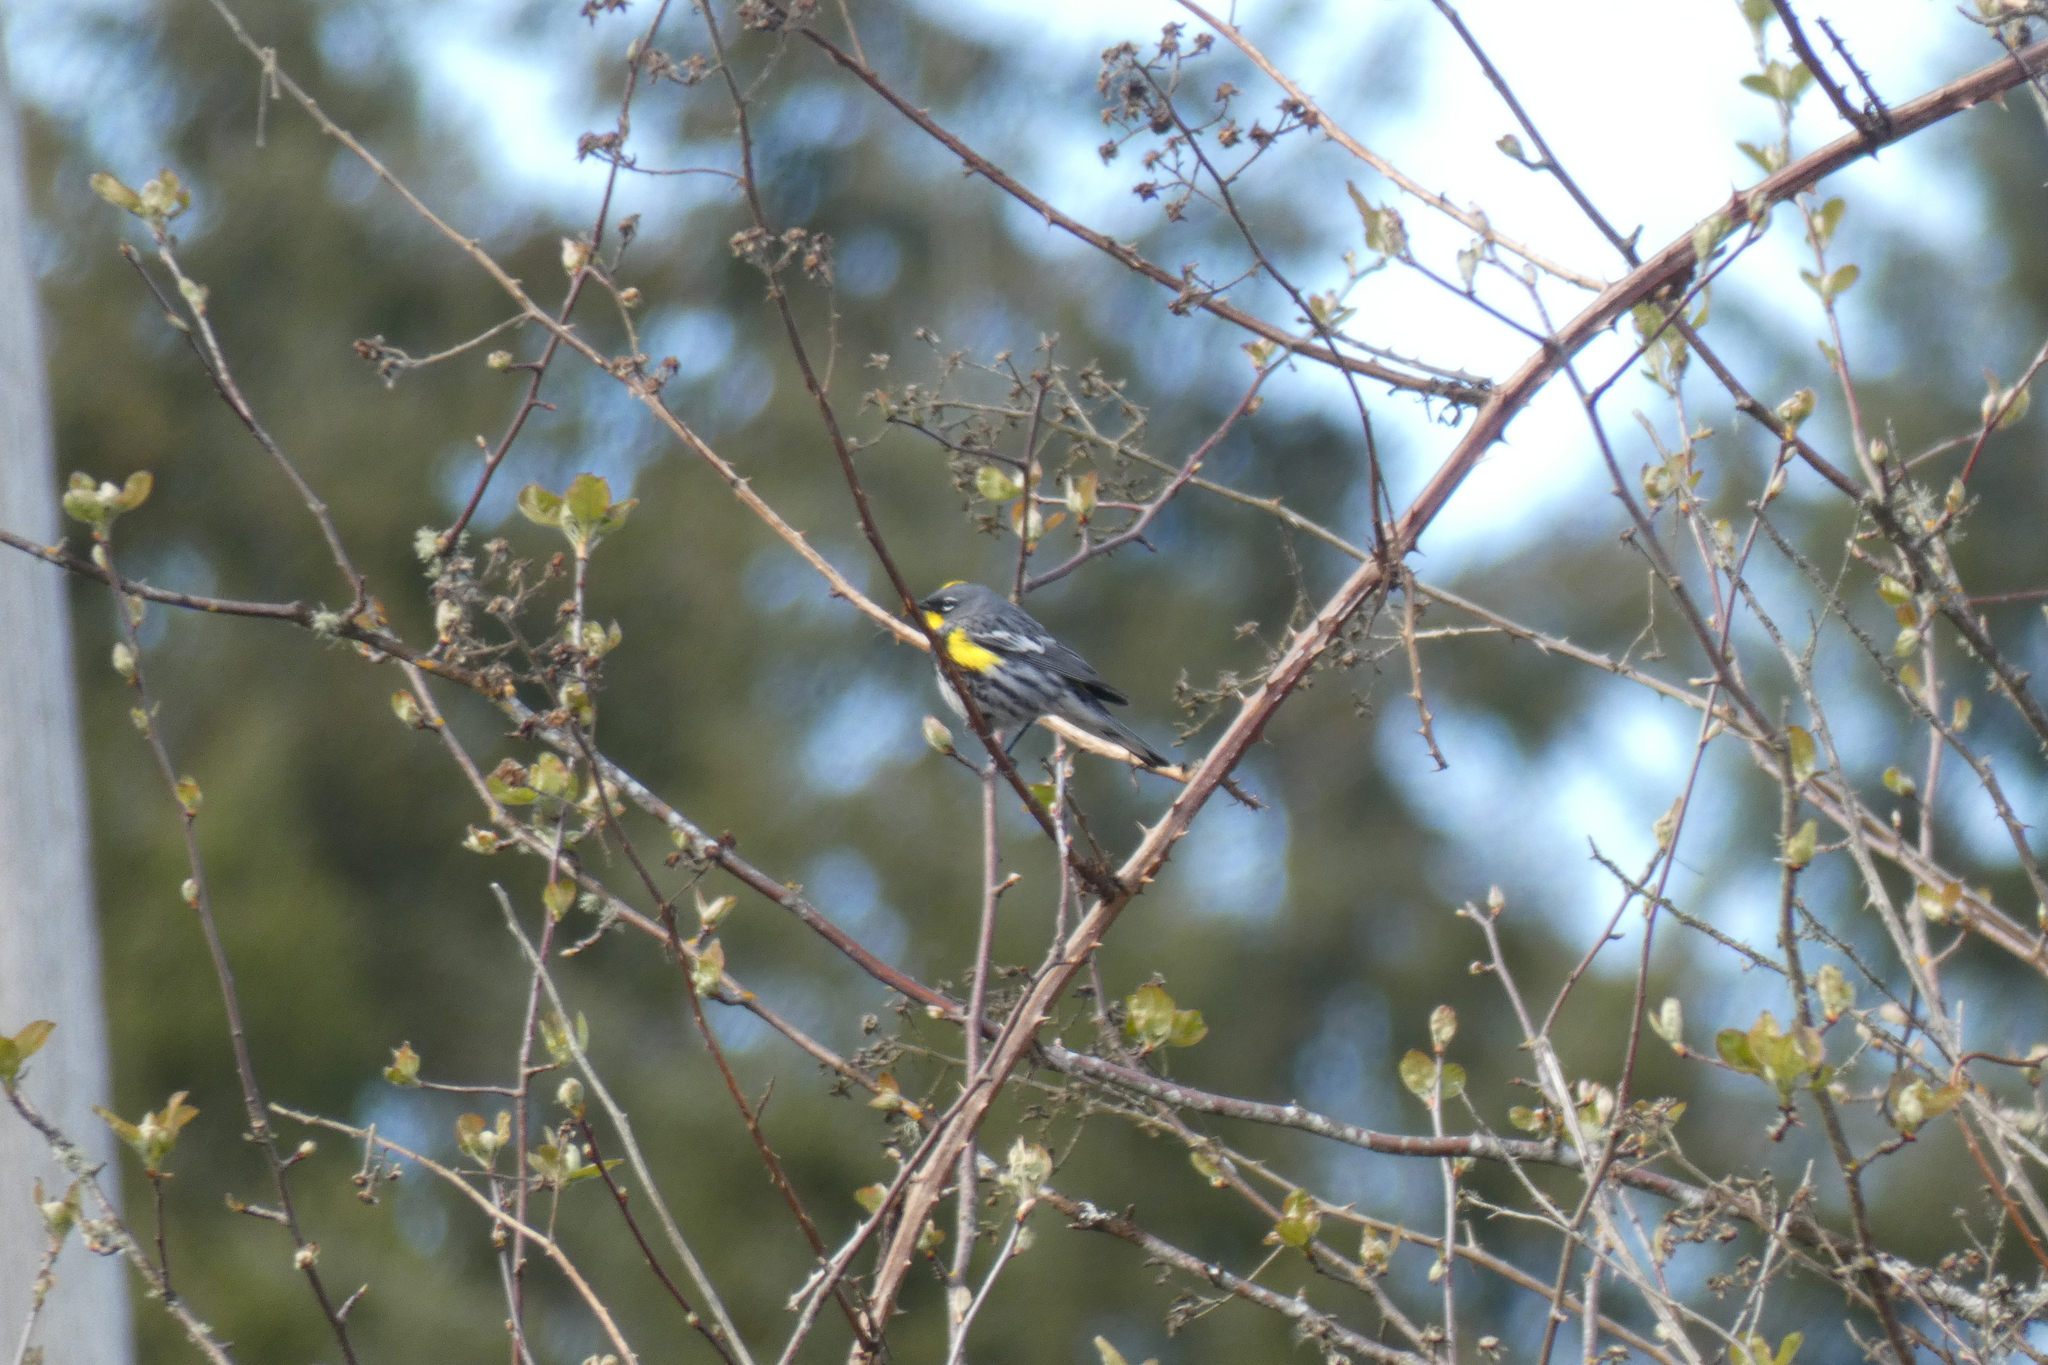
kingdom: Animalia
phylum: Chordata
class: Aves
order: Passeriformes
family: Parulidae
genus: Setophaga
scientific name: Setophaga coronata
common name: Myrtle warbler
